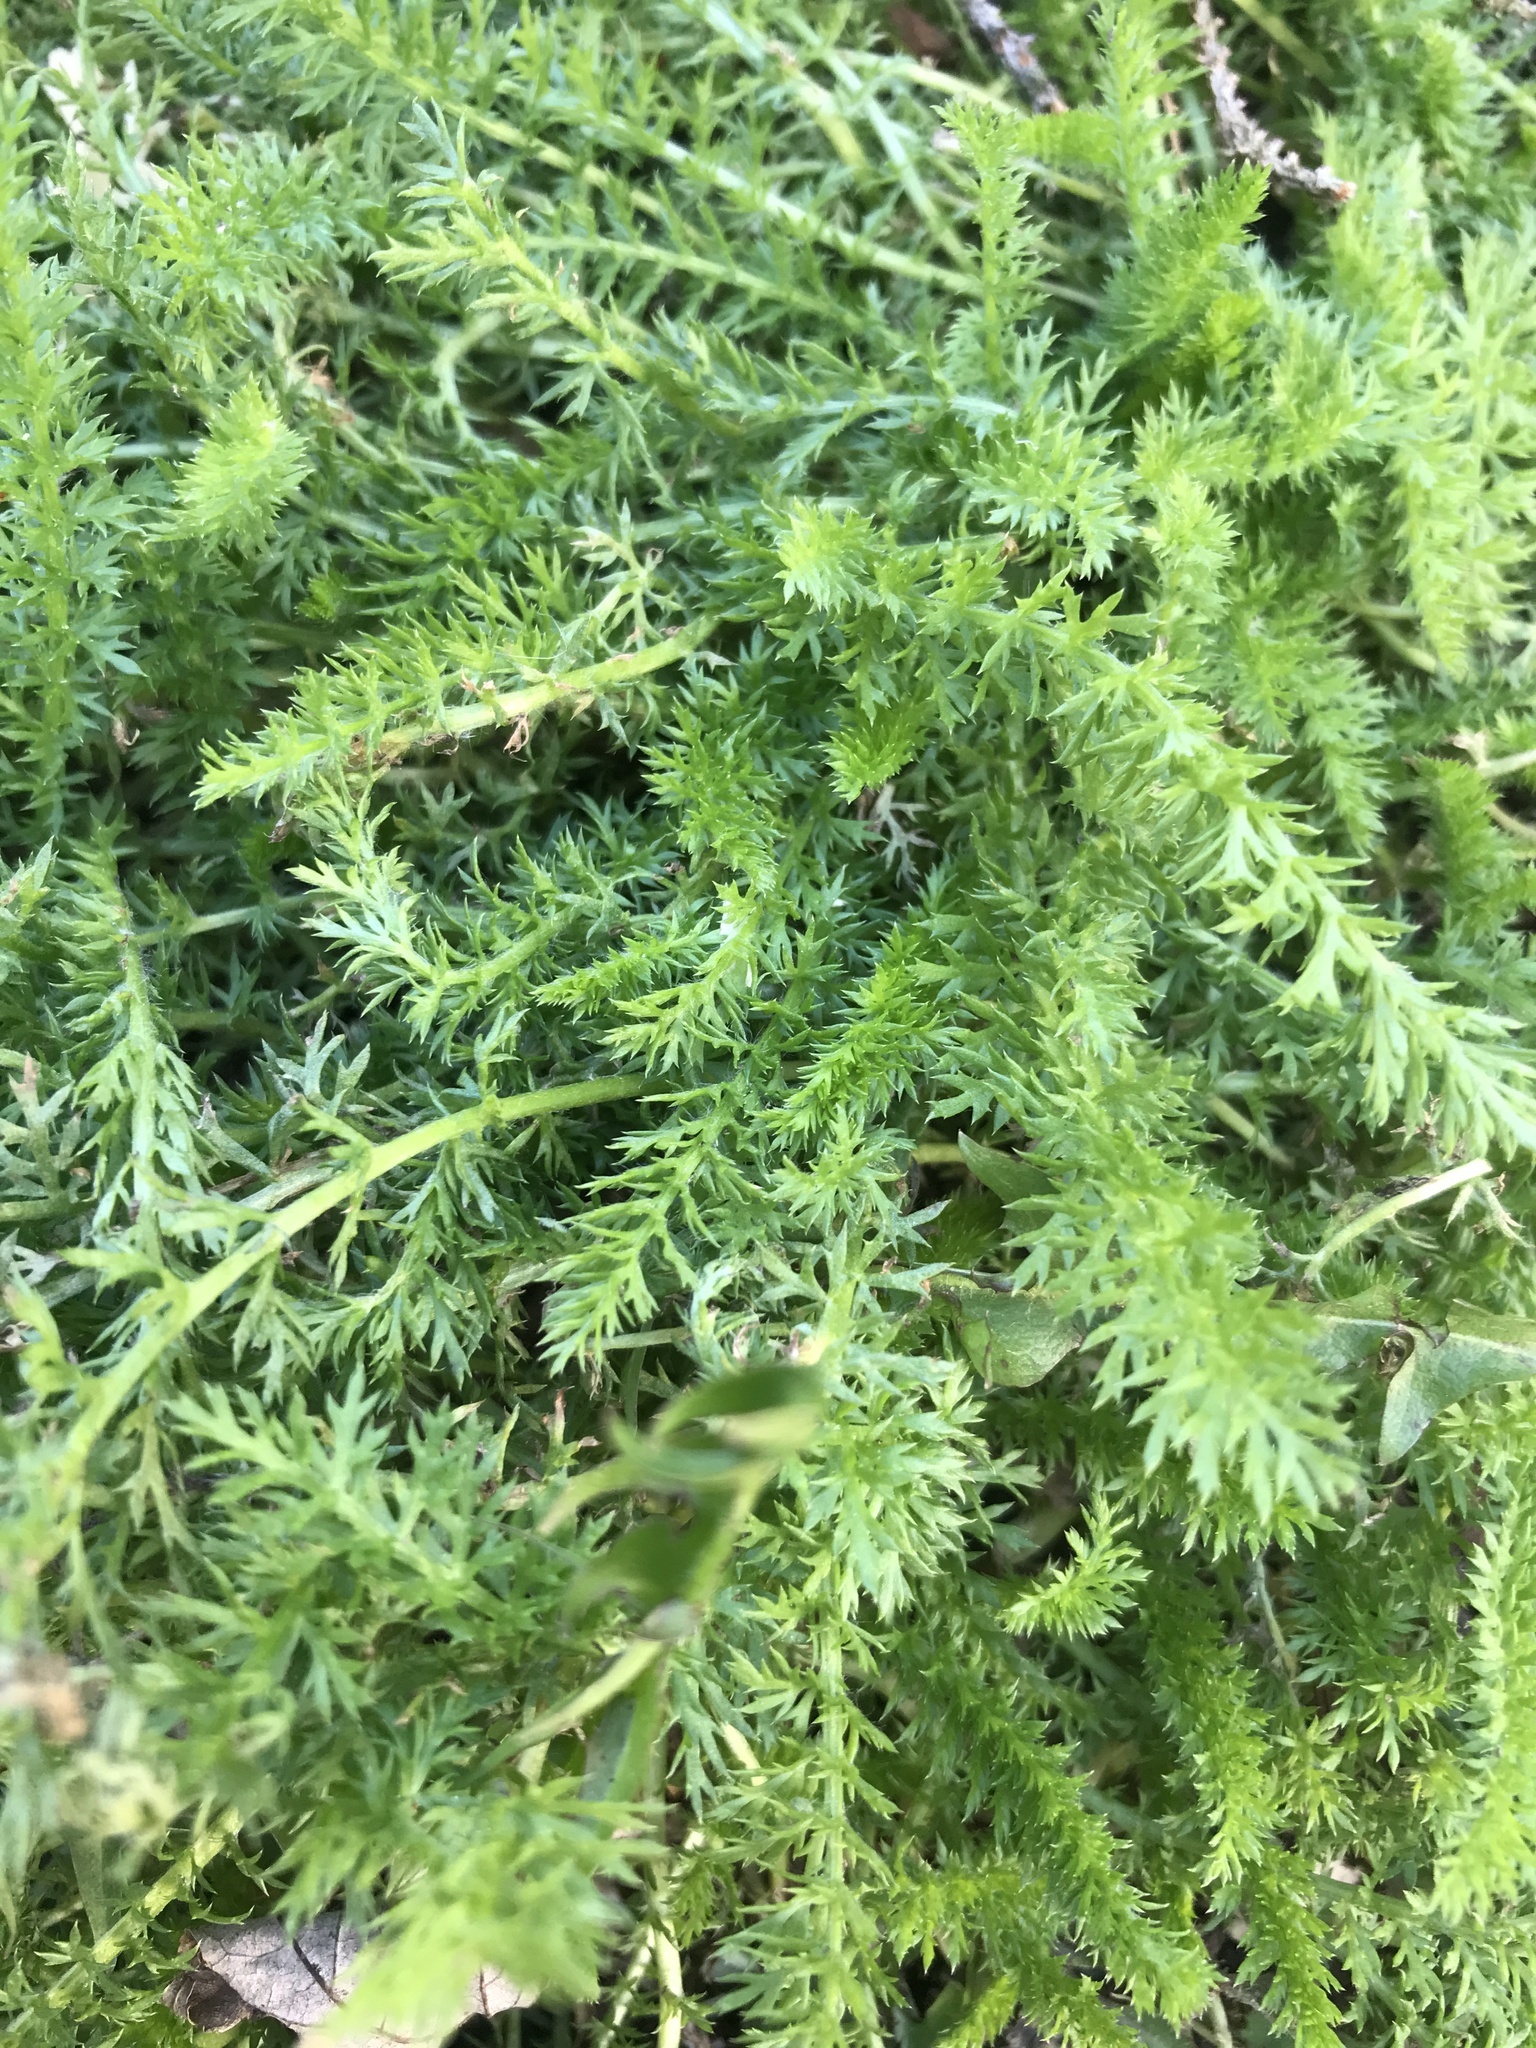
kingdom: Plantae
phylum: Tracheophyta
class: Magnoliopsida
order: Asterales
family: Asteraceae
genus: Achillea
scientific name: Achillea millefolium
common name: Yarrow
